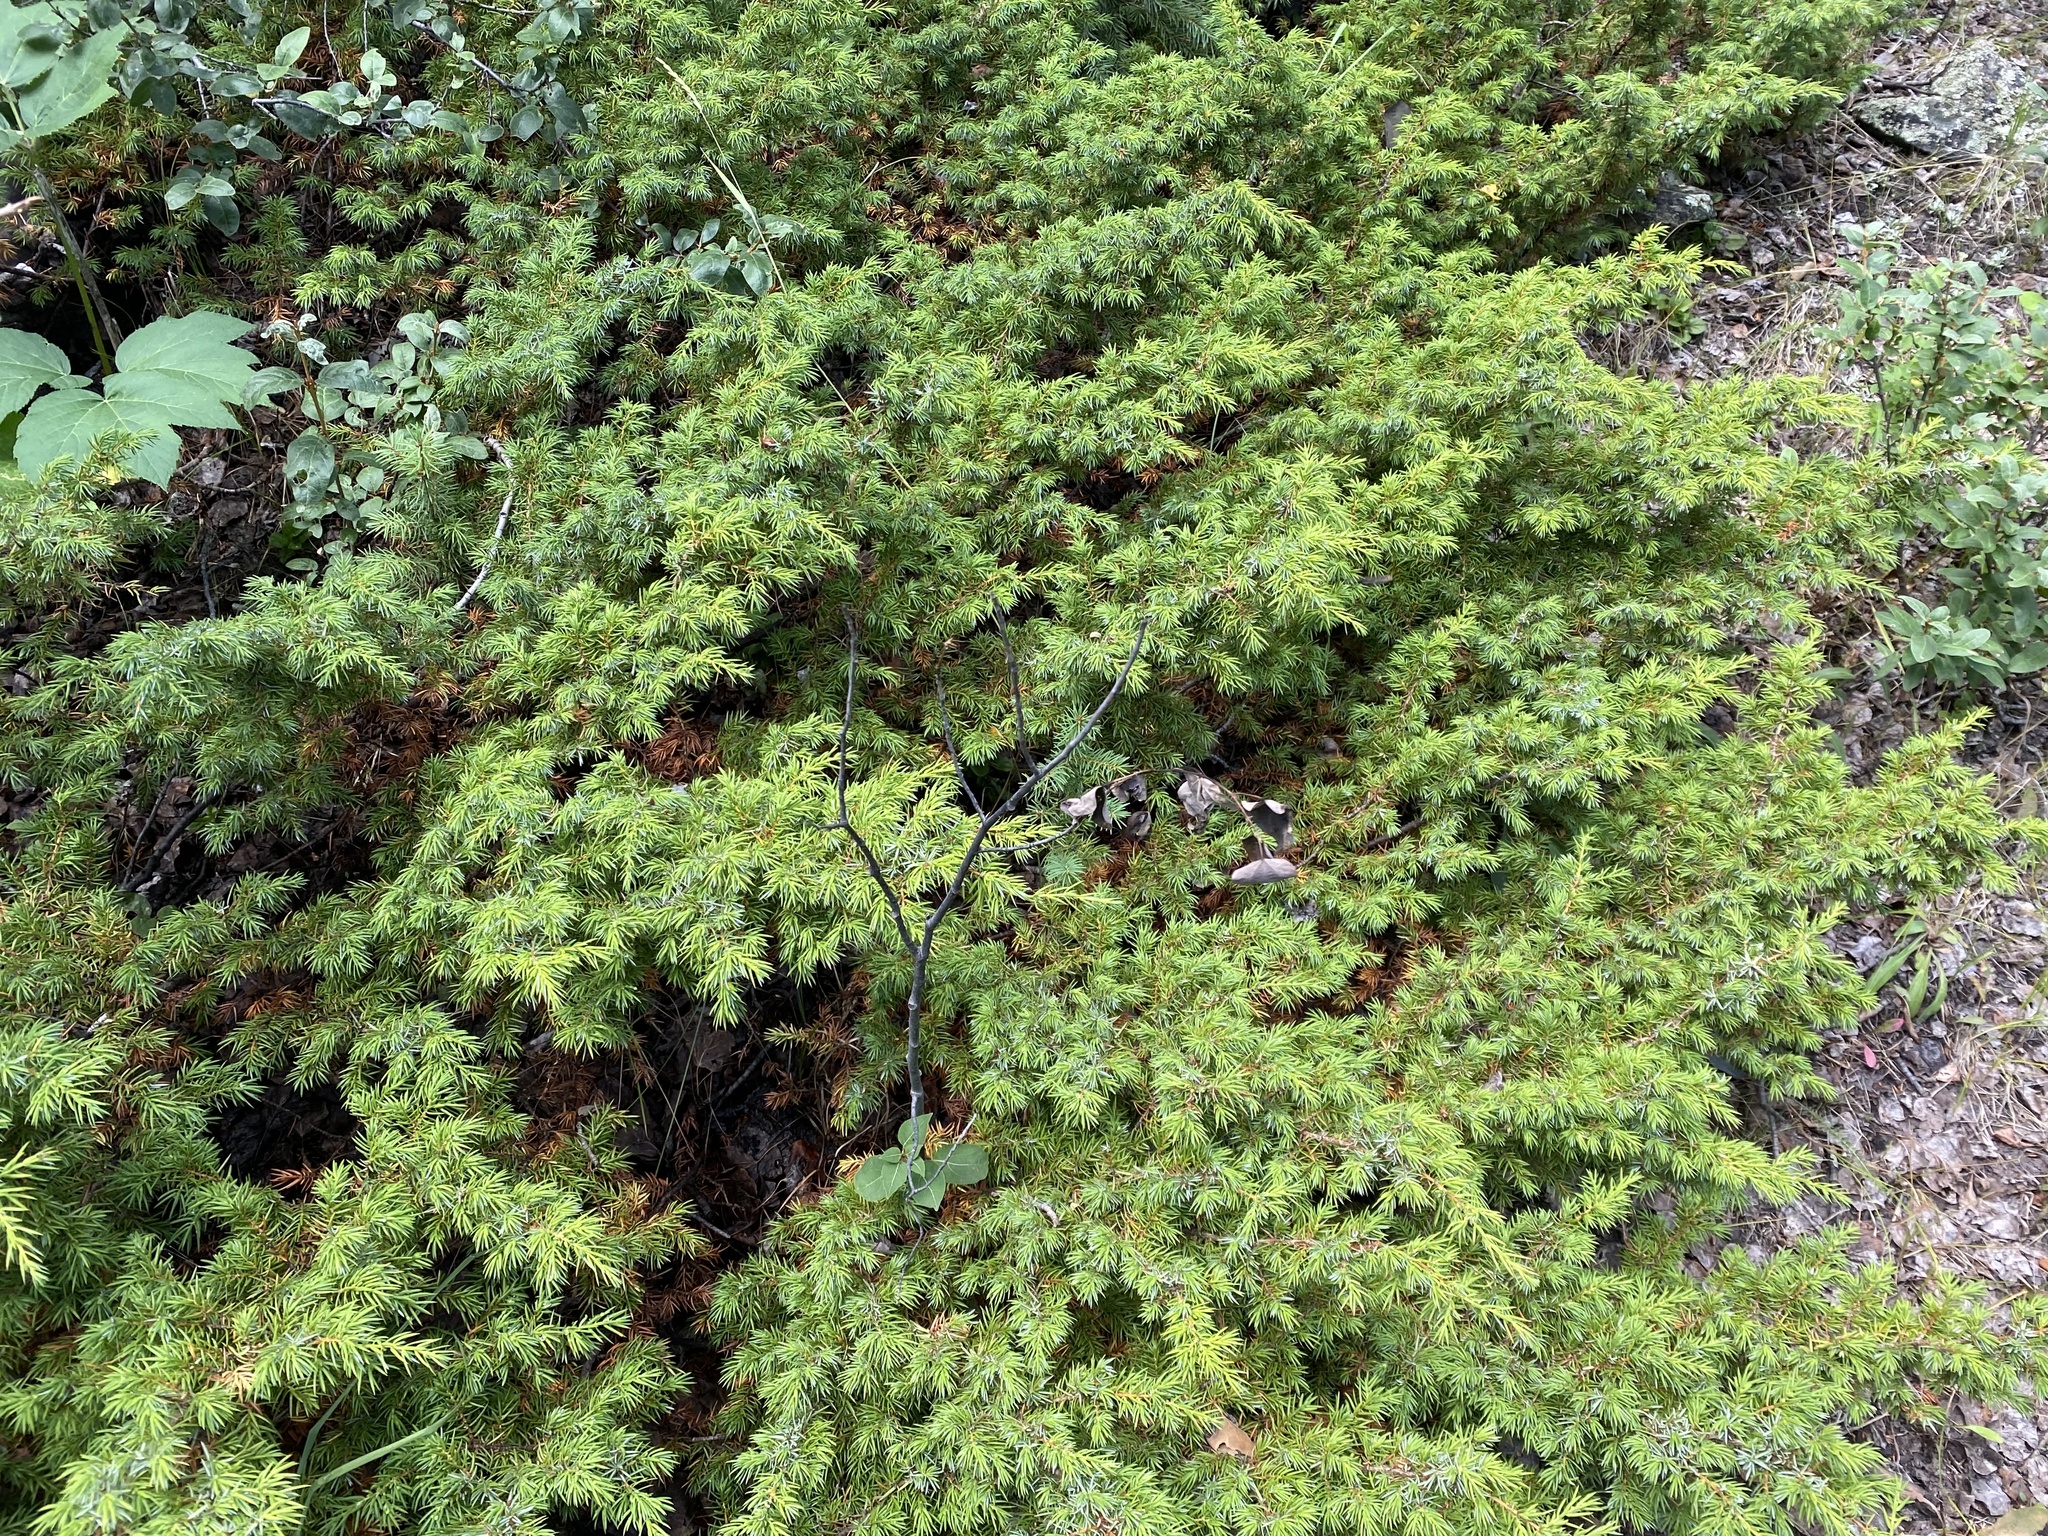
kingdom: Plantae
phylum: Tracheophyta
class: Pinopsida
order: Pinales
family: Cupressaceae
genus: Juniperus
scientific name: Juniperus communis
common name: Common juniper
